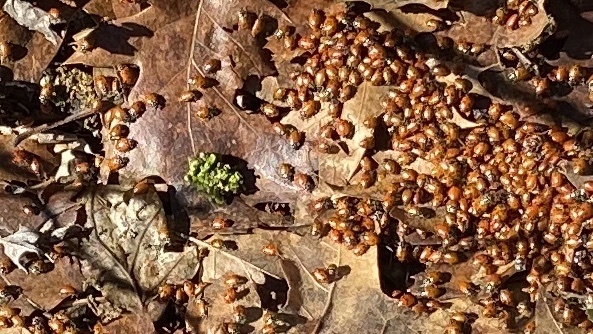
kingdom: Animalia
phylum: Arthropoda
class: Insecta
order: Coleoptera
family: Coccinellidae
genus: Hippodamia
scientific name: Hippodamia convergens
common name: Convergent lady beetle
